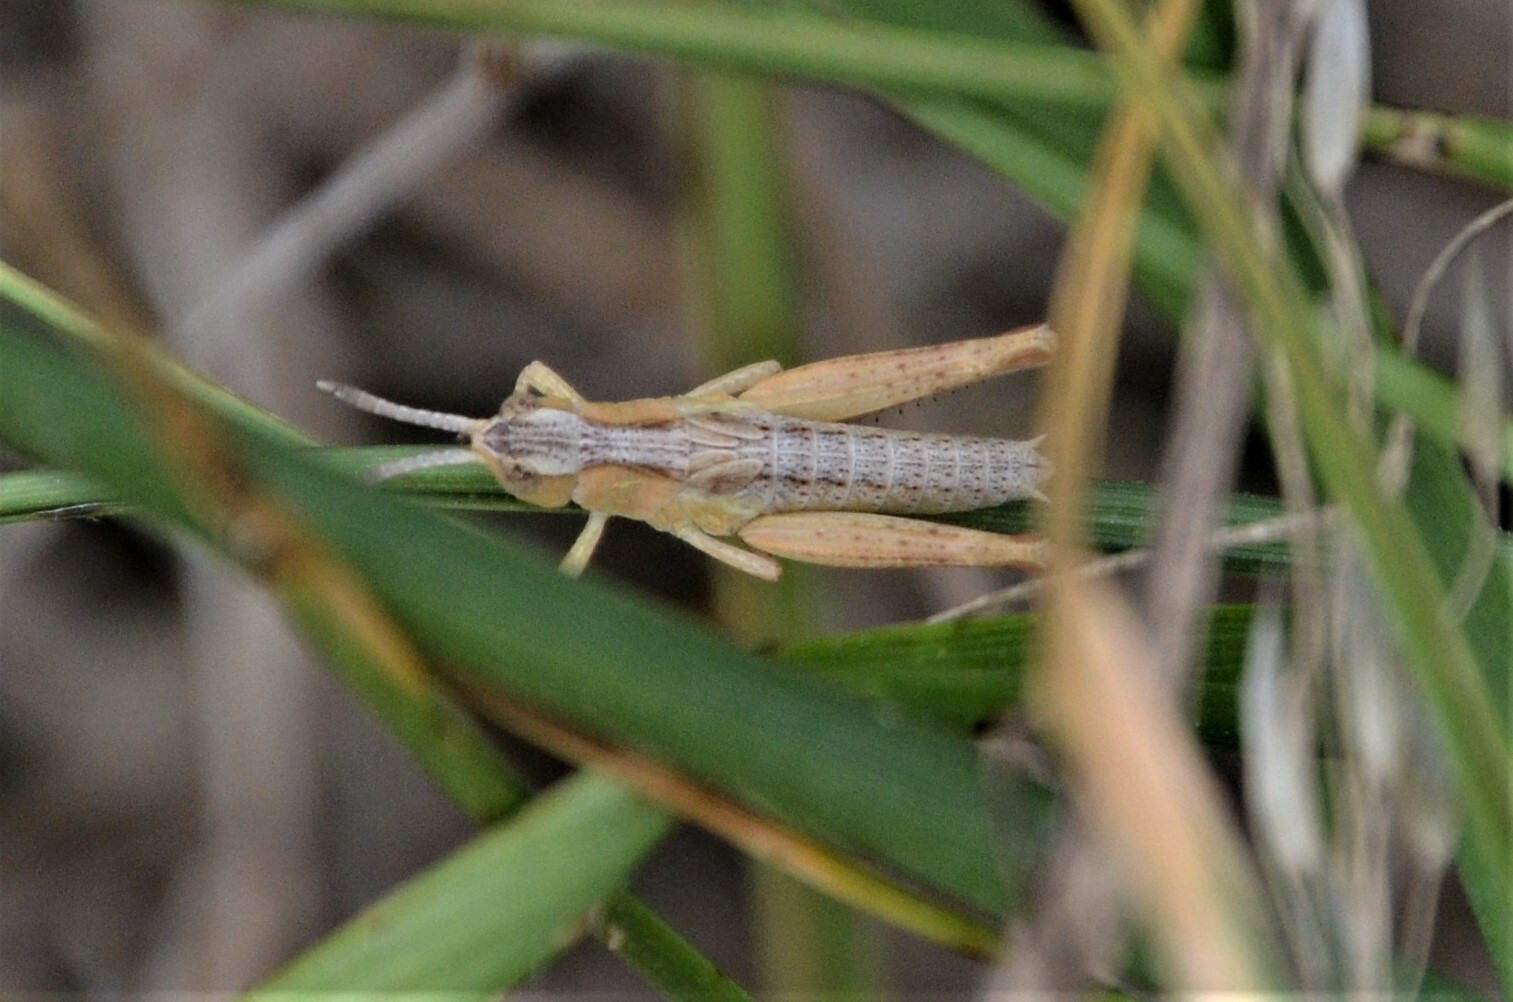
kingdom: Animalia
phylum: Arthropoda
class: Insecta
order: Orthoptera
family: Acrididae
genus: Gomphocerippus
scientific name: Gomphocerippus rufus
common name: Rufous grasshopper
